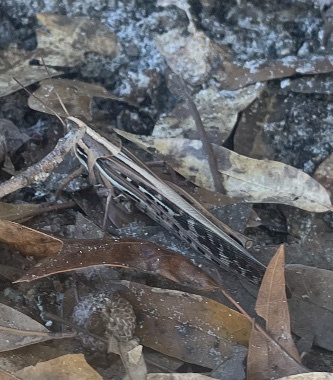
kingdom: Animalia
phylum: Arthropoda
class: Insecta
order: Orthoptera
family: Acrididae
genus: Schistocerca
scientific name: Schistocerca americana
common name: American bird locust
